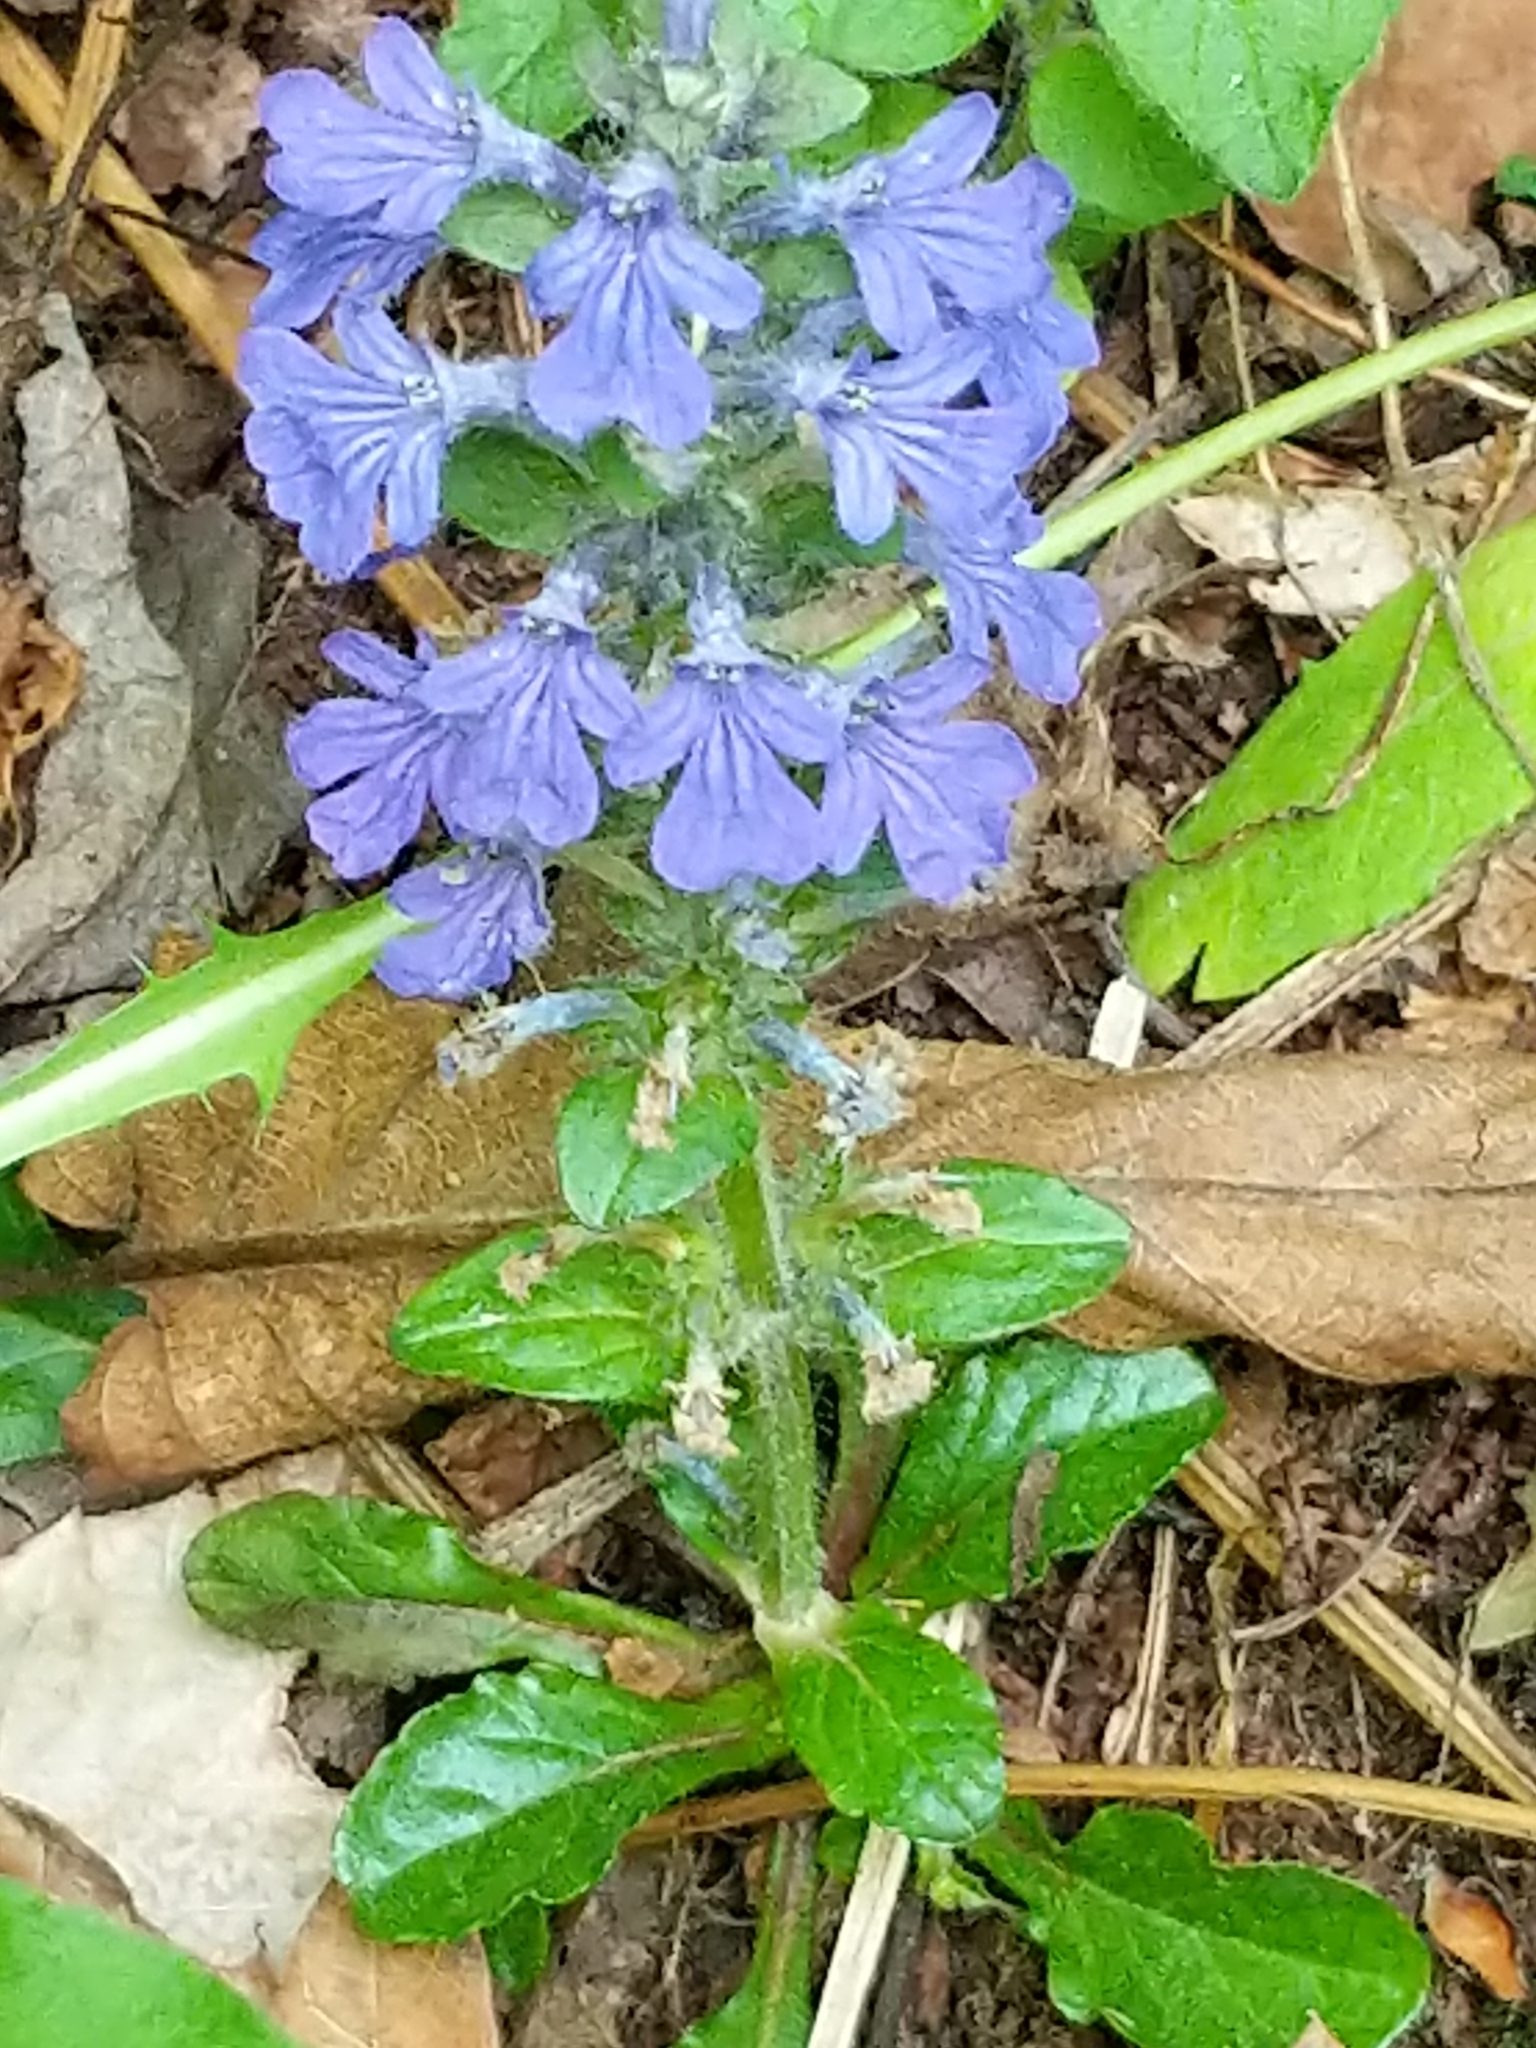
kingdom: Plantae
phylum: Tracheophyta
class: Magnoliopsida
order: Lamiales
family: Lamiaceae
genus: Ajuga
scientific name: Ajuga reptans
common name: Bugle
